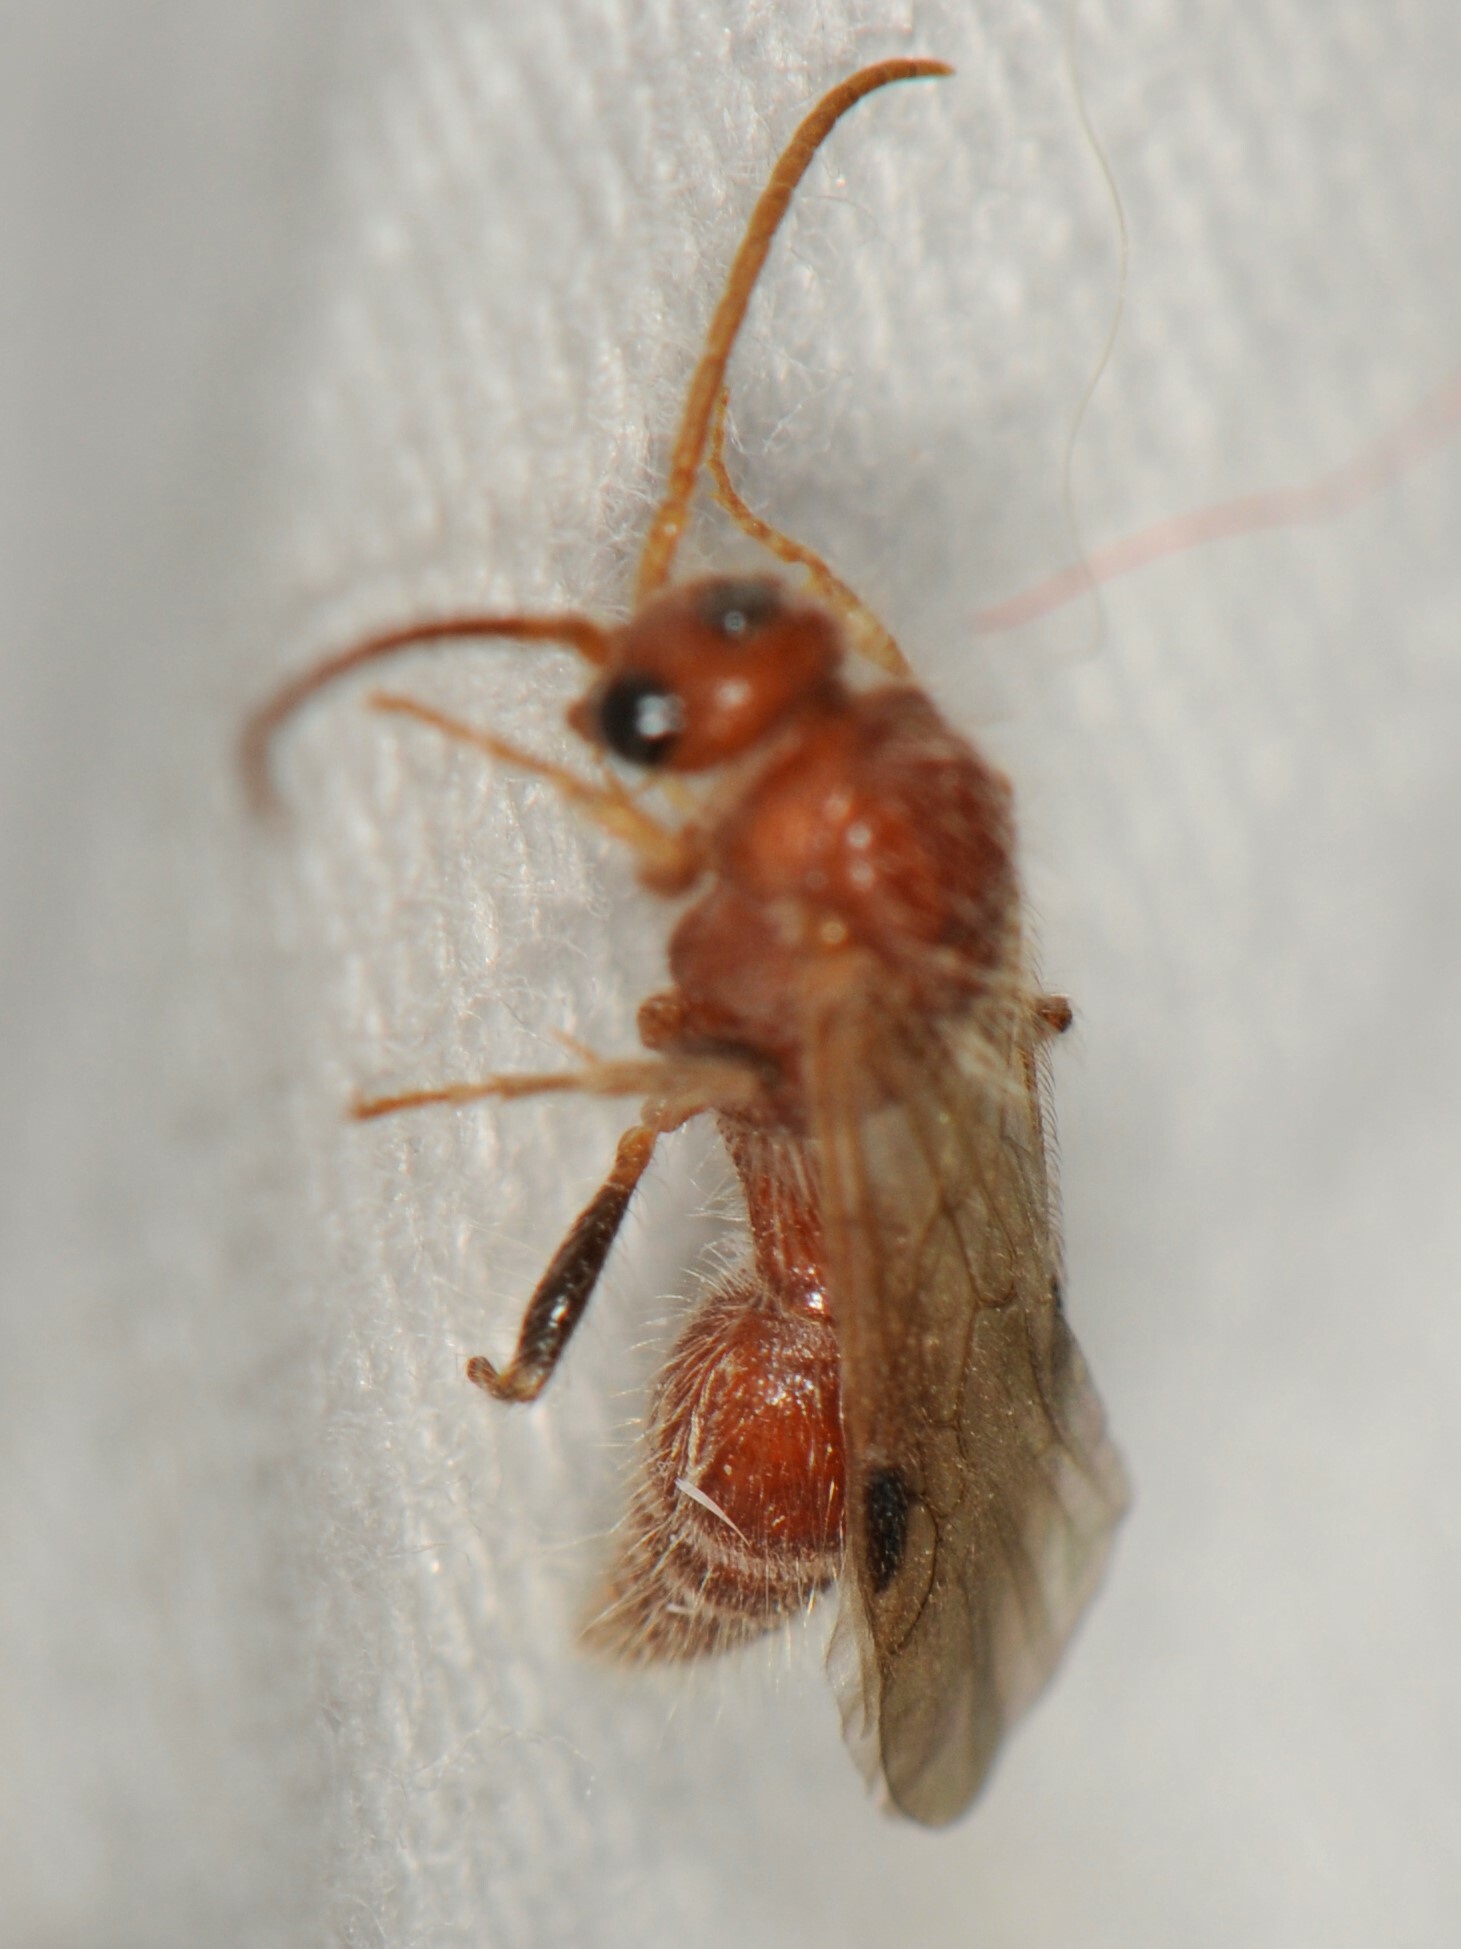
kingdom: Animalia
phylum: Arthropoda
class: Insecta
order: Hymenoptera
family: Mutillidae
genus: Sphaeropthalma
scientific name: Sphaeropthalma
